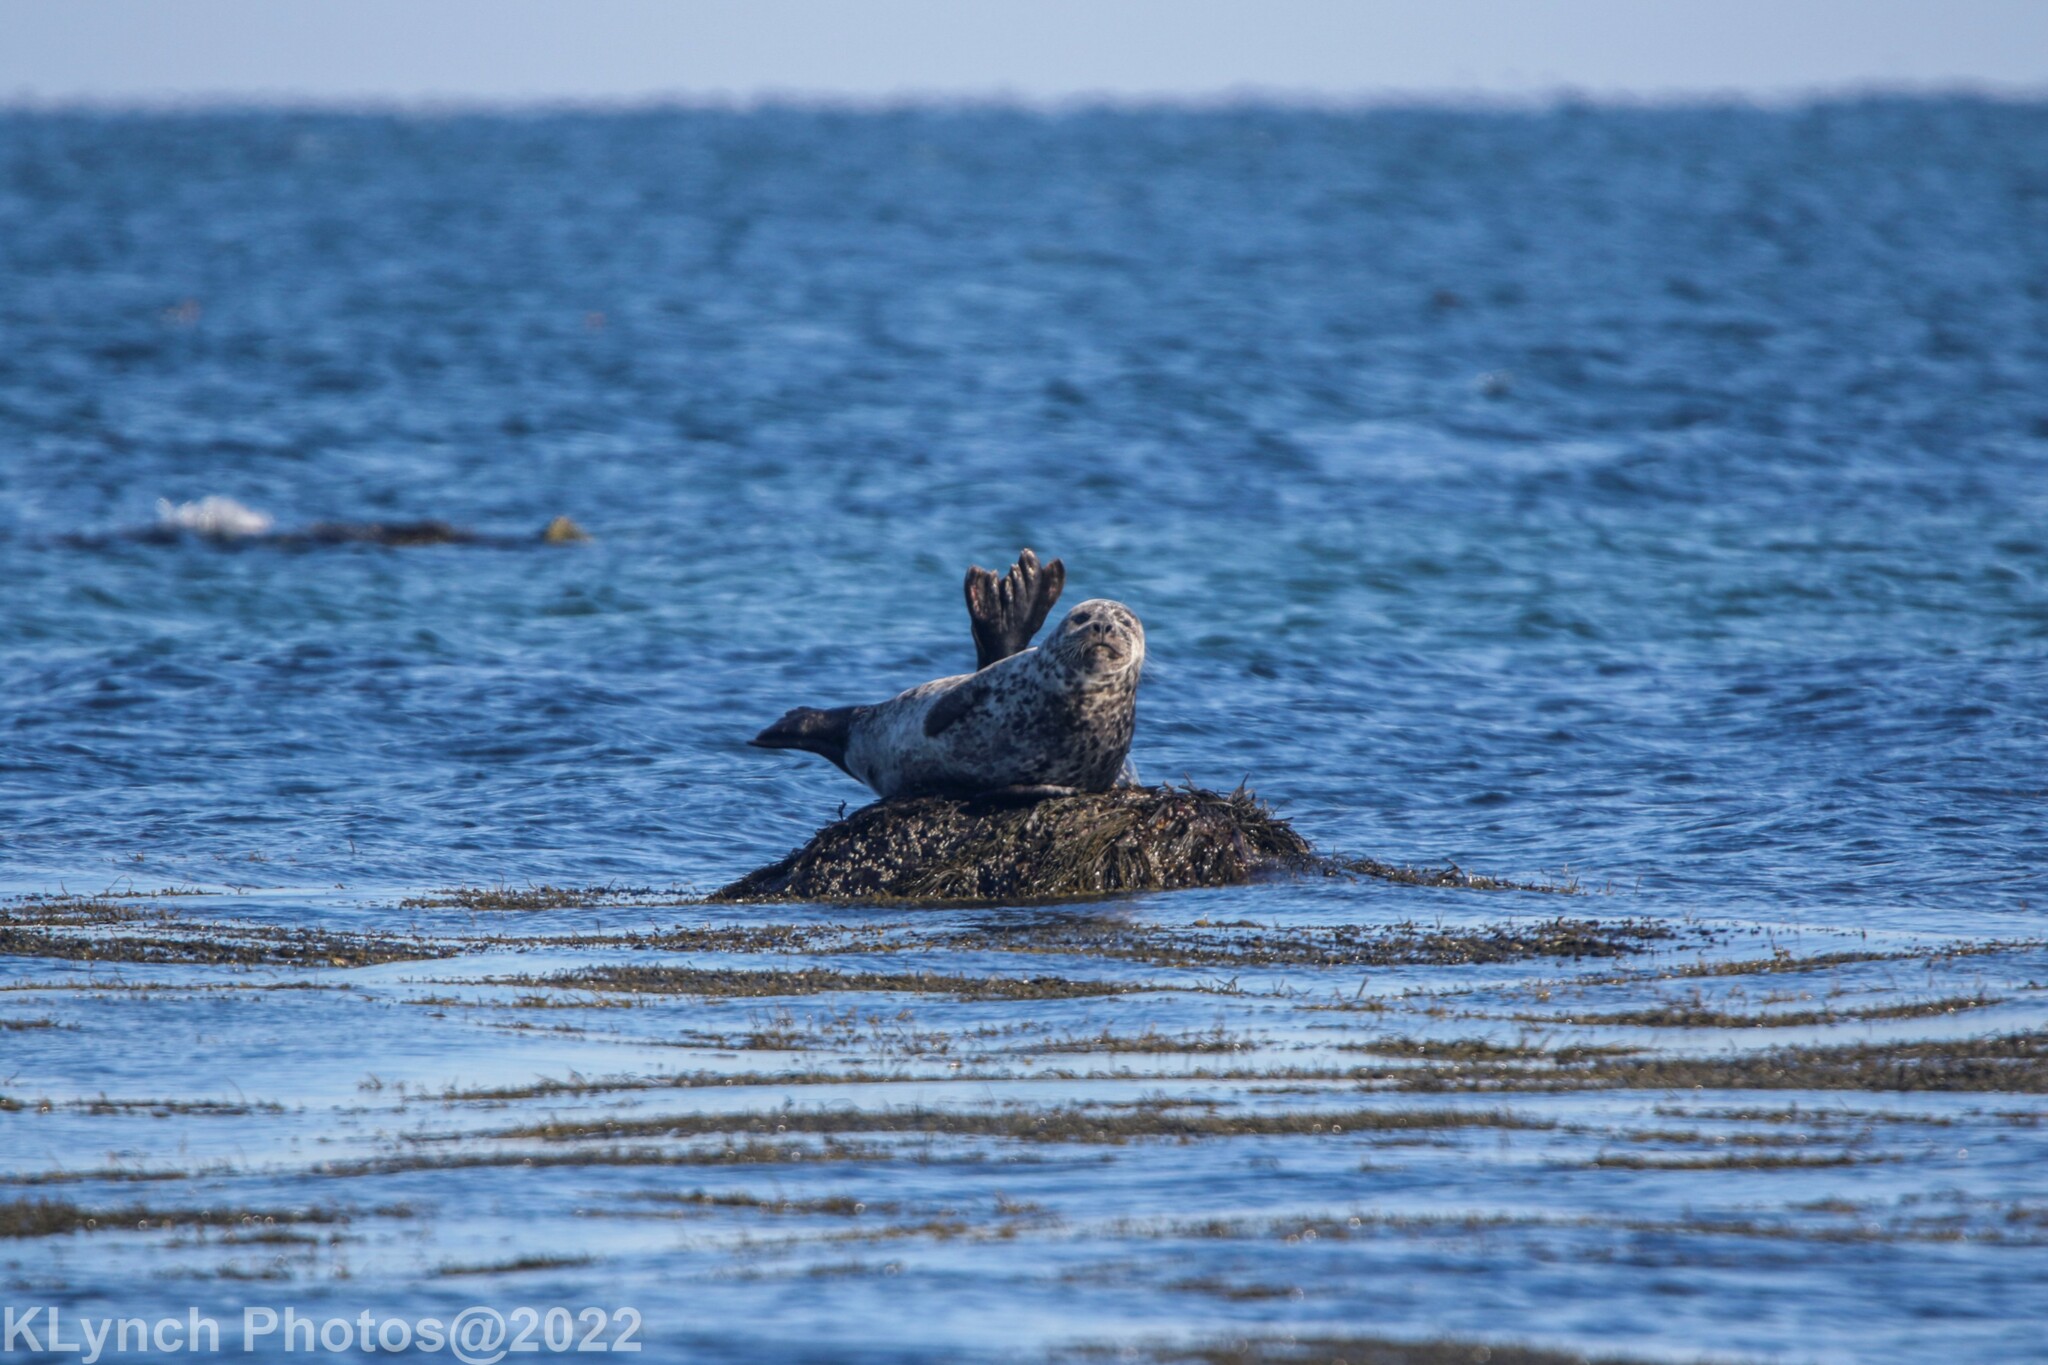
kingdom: Animalia
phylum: Chordata
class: Mammalia
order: Carnivora
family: Phocidae
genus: Phoca
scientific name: Phoca vitulina
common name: Harbor seal
